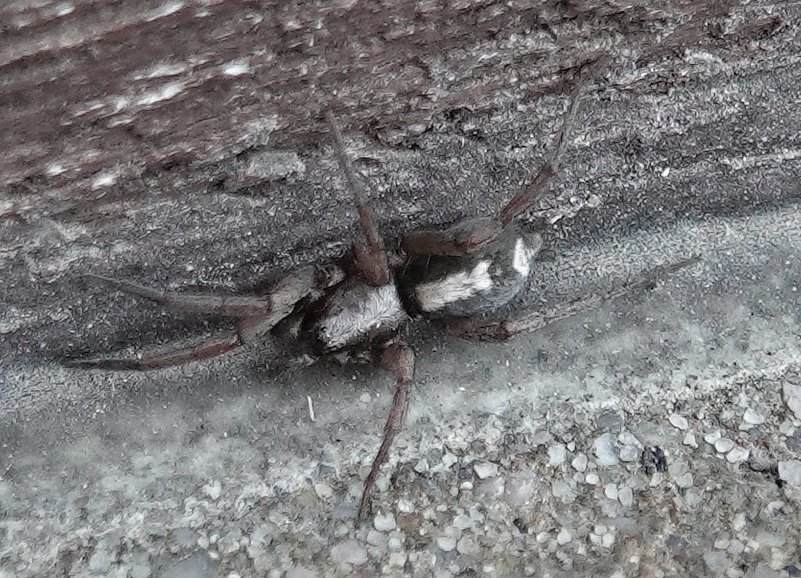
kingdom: Animalia
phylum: Arthropoda
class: Arachnida
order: Araneae
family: Gnaphosidae
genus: Herpyllus
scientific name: Herpyllus ecclesiasticus
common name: Eastern parson spider
